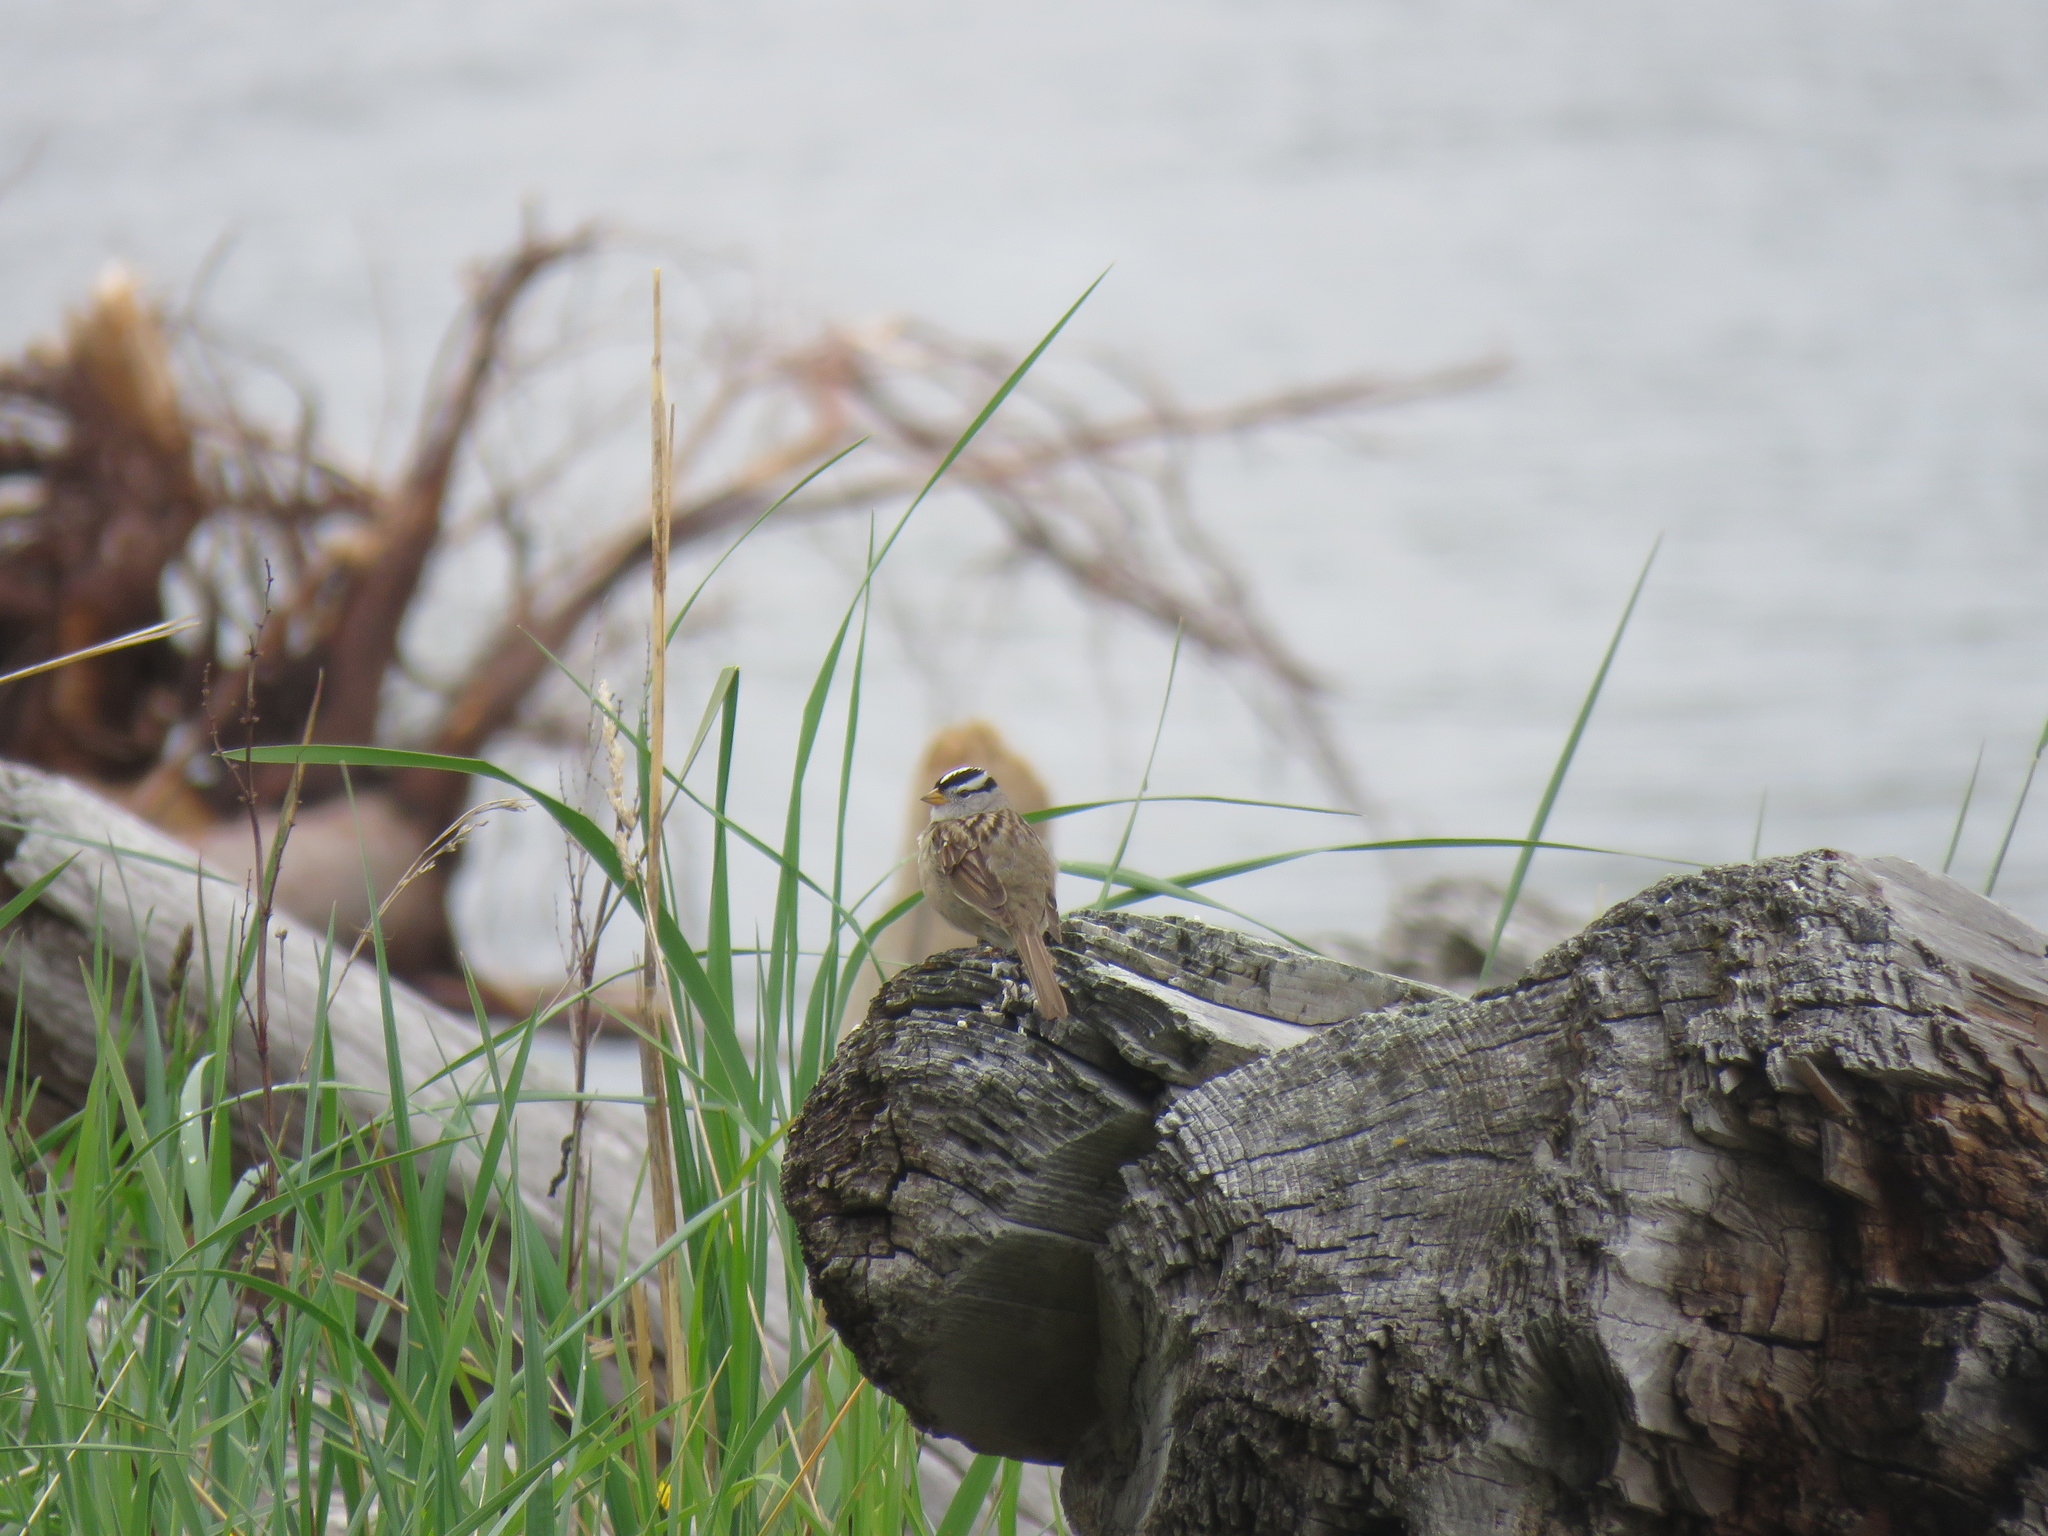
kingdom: Animalia
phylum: Chordata
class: Aves
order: Passeriformes
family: Passerellidae
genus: Zonotrichia
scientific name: Zonotrichia leucophrys
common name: White-crowned sparrow
